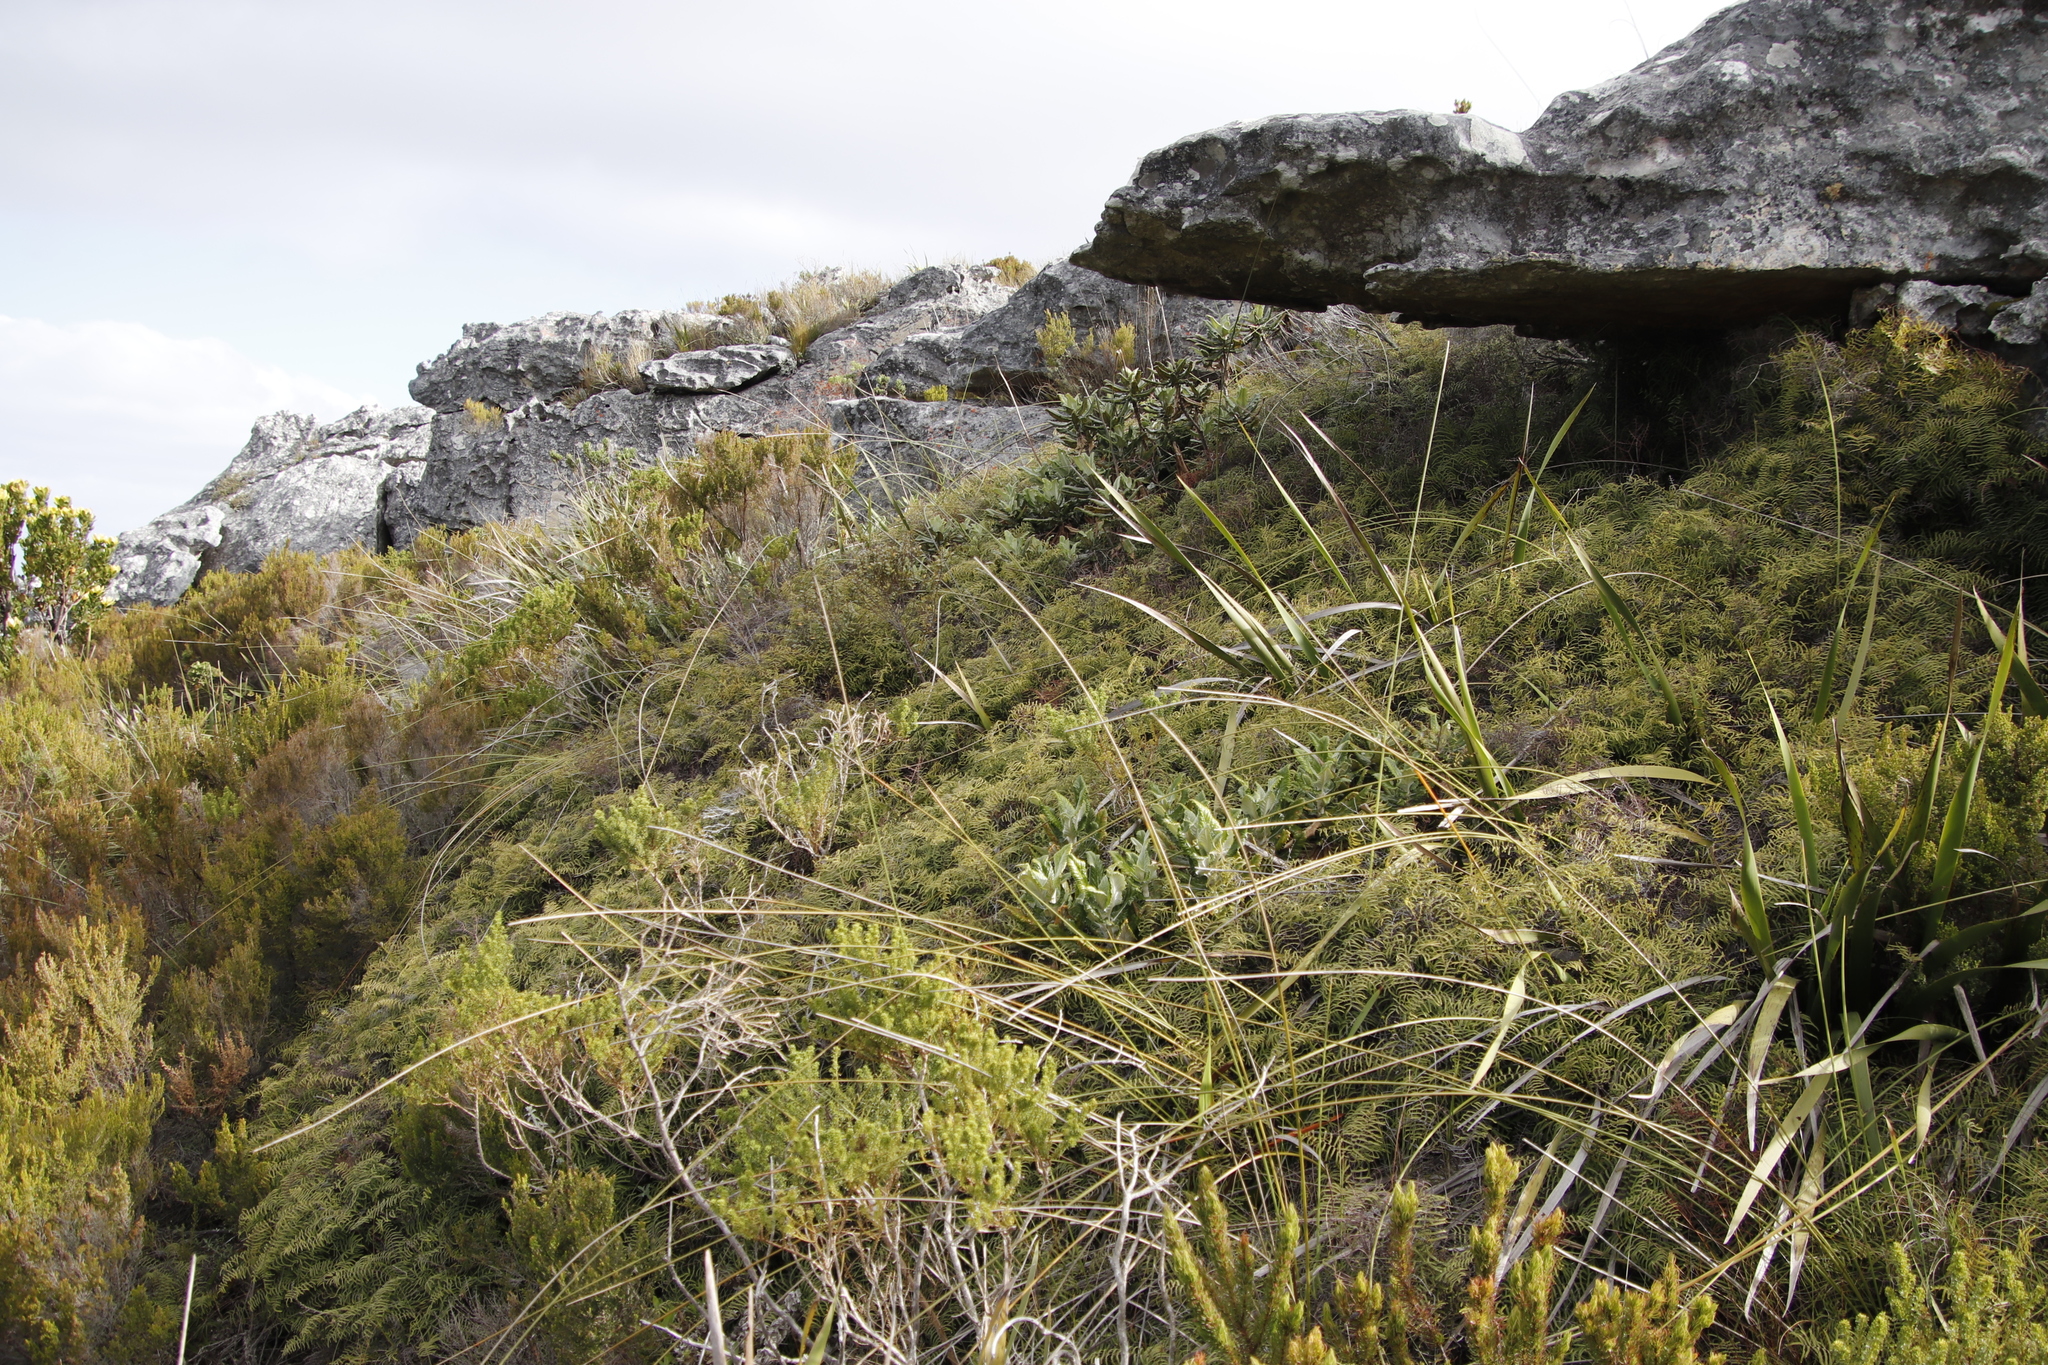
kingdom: Plantae
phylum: Tracheophyta
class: Polypodiopsida
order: Gleicheniales
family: Gleicheniaceae
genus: Gleichenia
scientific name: Gleichenia polypodioides
